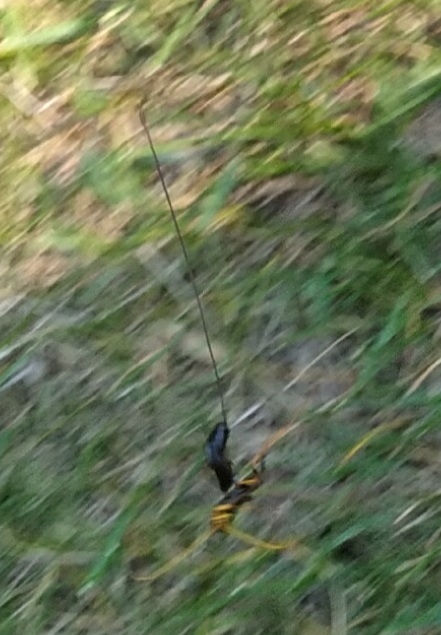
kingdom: Animalia
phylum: Arthropoda
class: Insecta
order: Hymenoptera
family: Ichneumonidae
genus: Megarhyssa
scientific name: Megarhyssa atrata
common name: Black giant ichneumonid wasp
